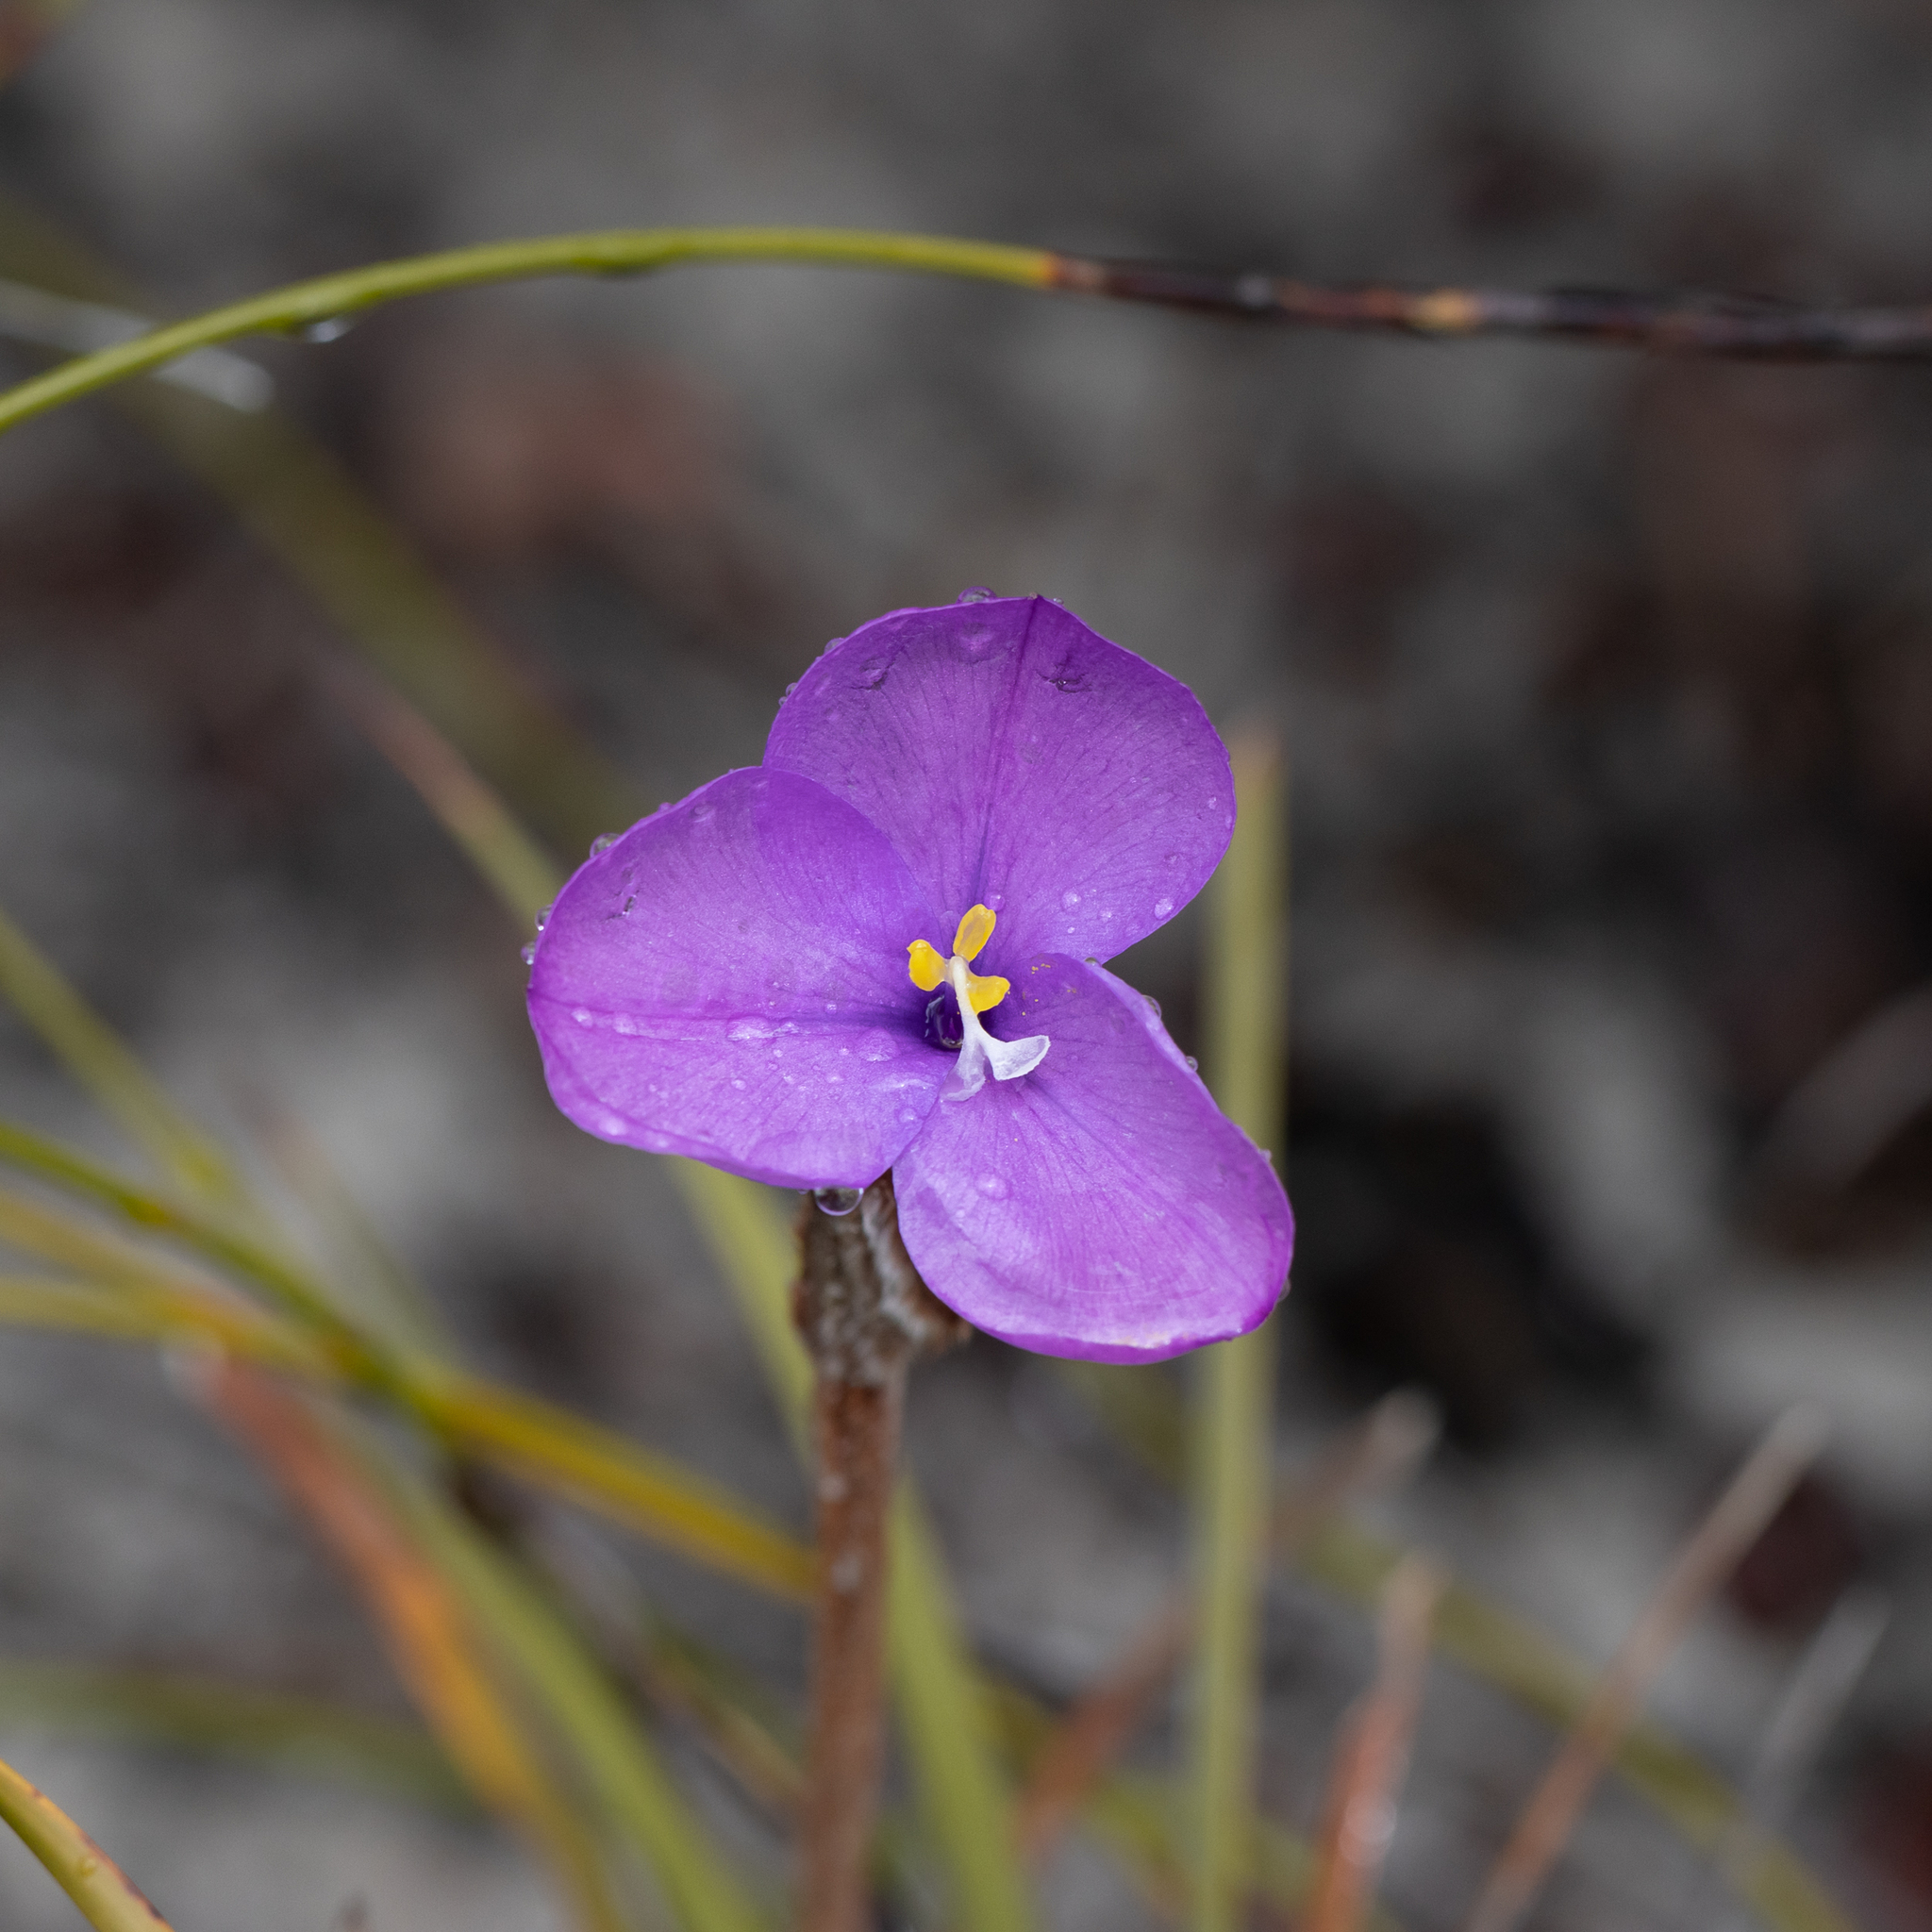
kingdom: Plantae
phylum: Tracheophyta
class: Liliopsida
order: Asparagales
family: Iridaceae
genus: Patersonia
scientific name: Patersonia lanata
